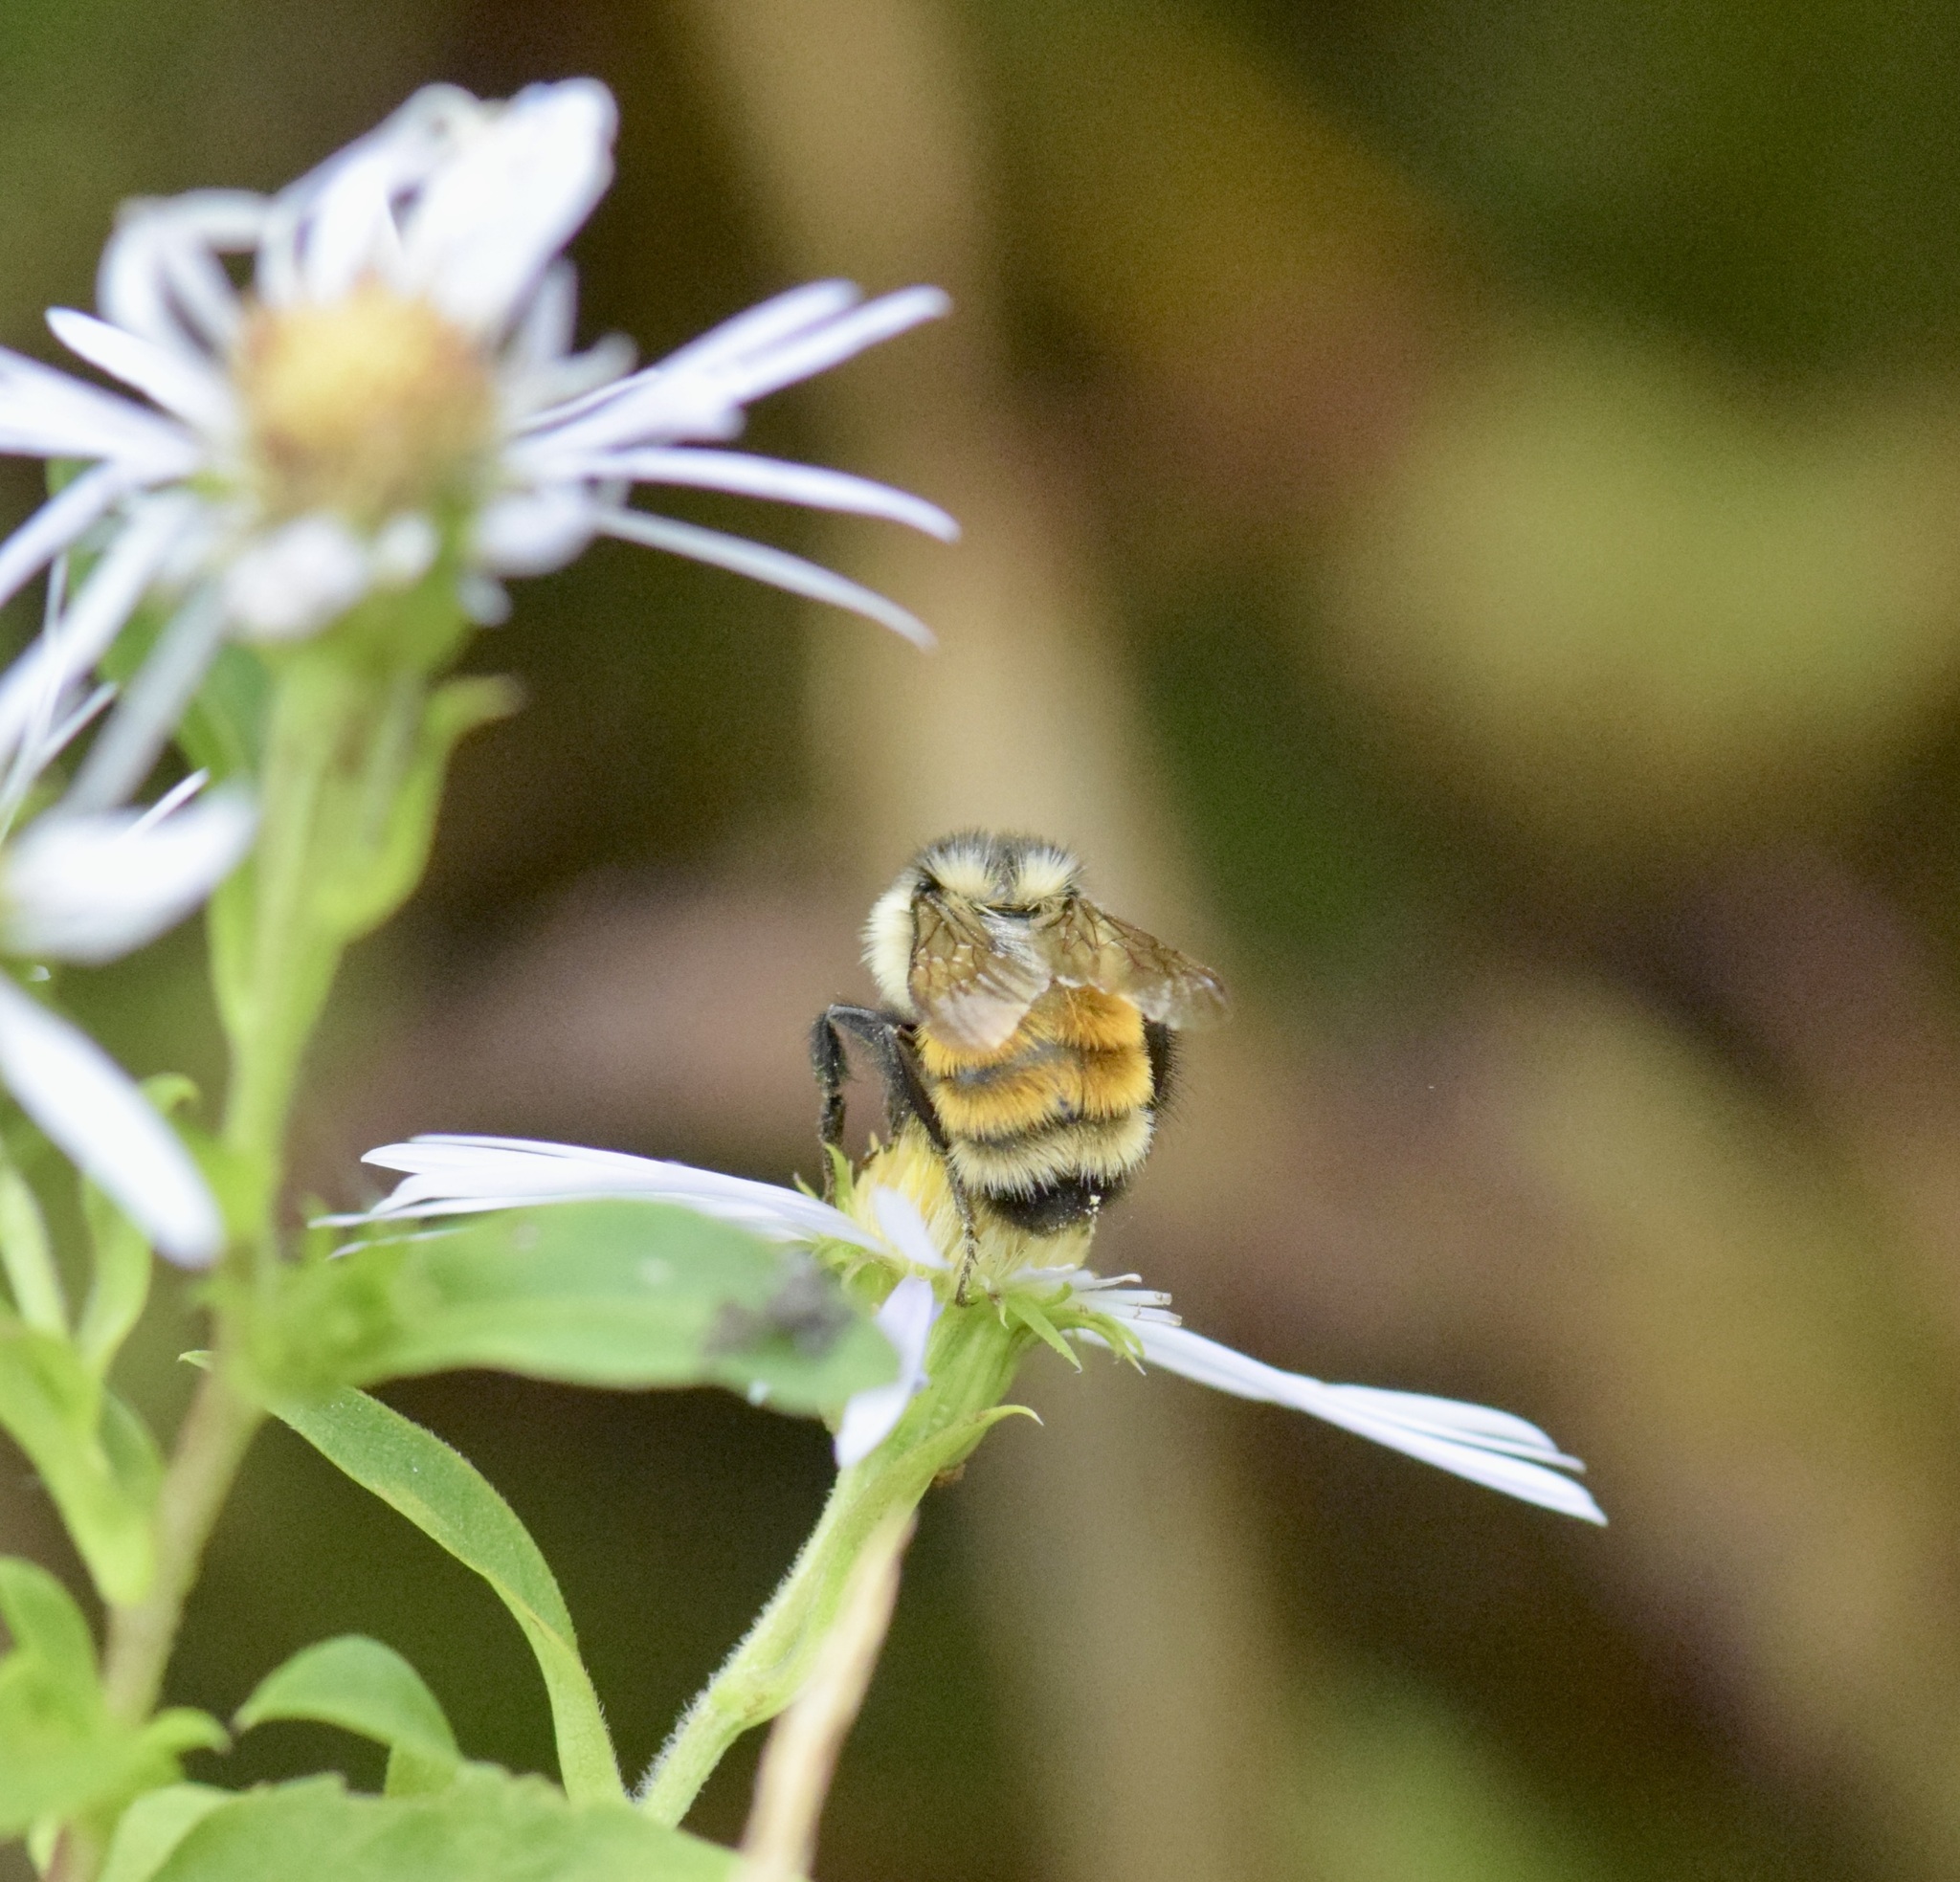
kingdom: Animalia
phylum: Arthropoda
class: Insecta
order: Hymenoptera
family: Apidae
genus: Bombus
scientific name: Bombus ternarius
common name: Tri-colored bumble bee
